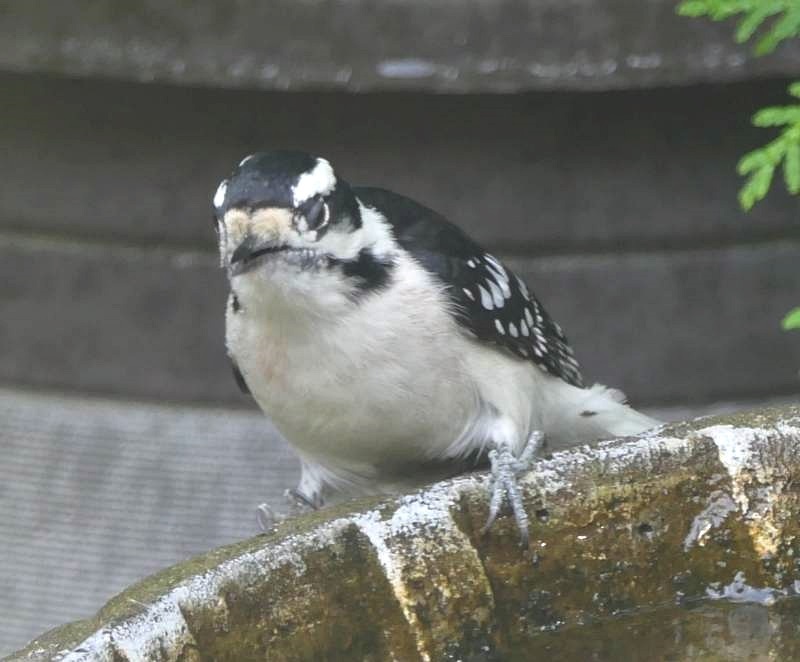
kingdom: Animalia
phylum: Chordata
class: Aves
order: Piciformes
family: Picidae
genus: Dryobates
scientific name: Dryobates pubescens
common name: Downy woodpecker
